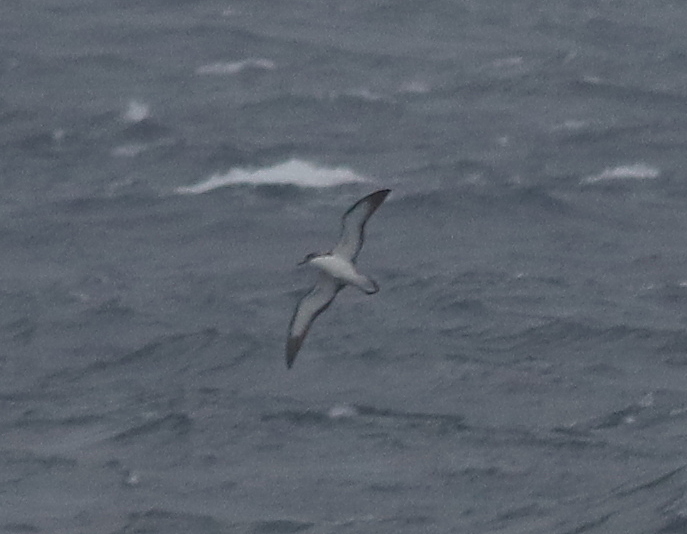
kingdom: Animalia
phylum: Chordata
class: Aves
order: Procellariiformes
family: Procellariidae
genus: Puffinus
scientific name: Puffinus puffinus
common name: Manx shearwater
